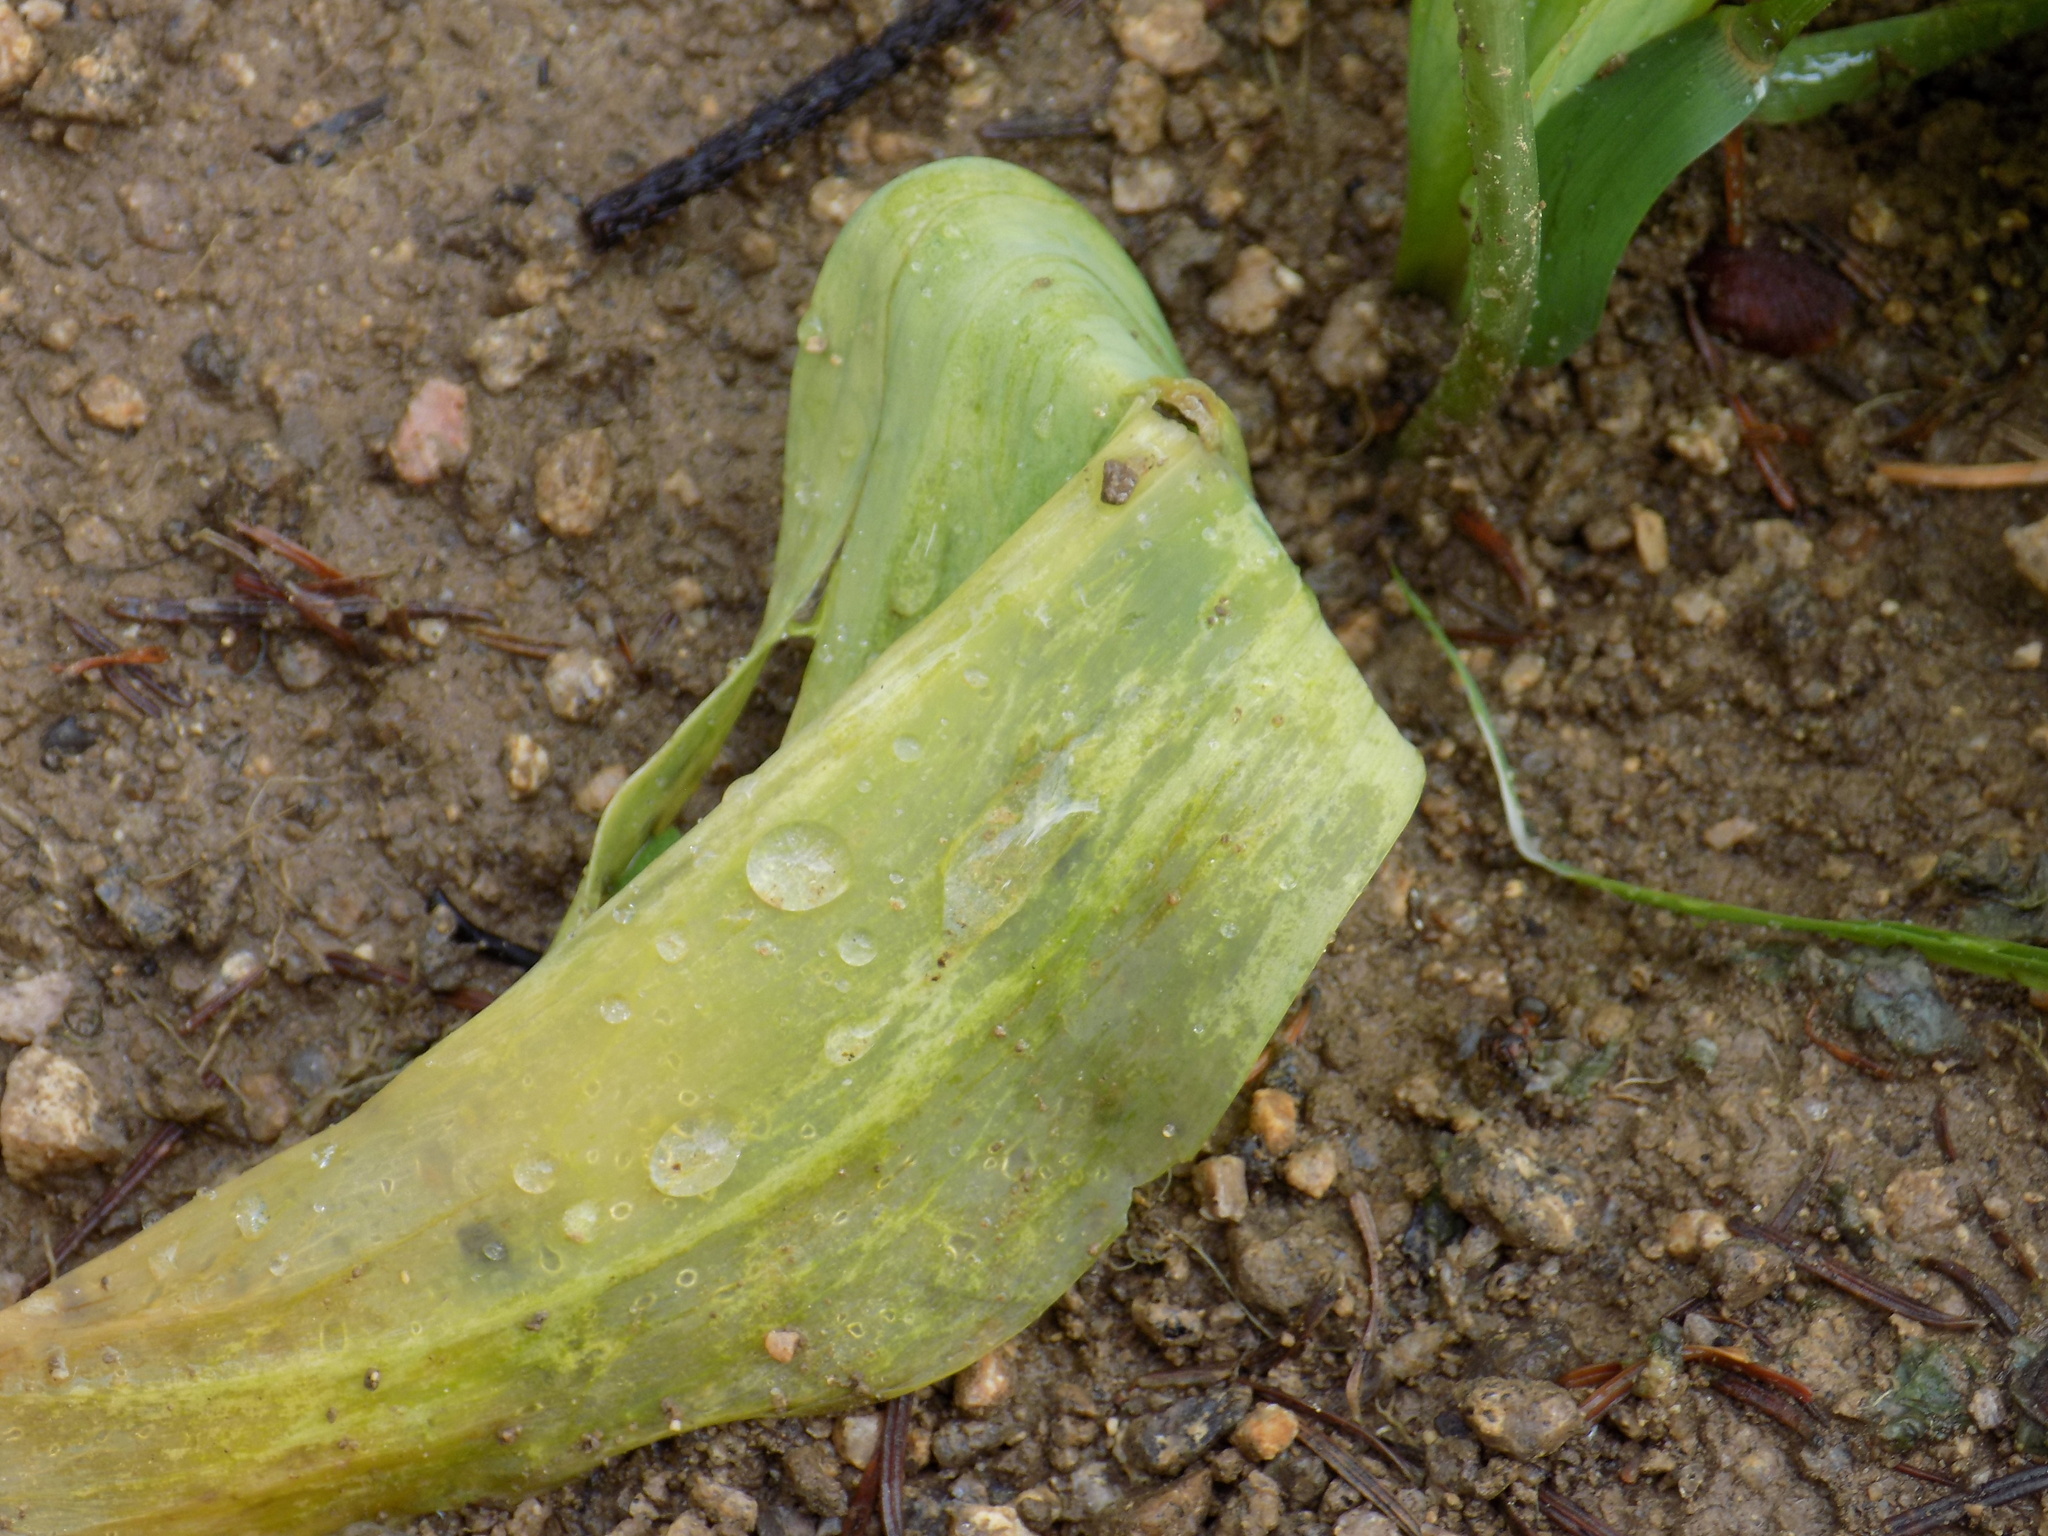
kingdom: Plantae
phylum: Tracheophyta
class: Liliopsida
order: Liliales
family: Liliaceae
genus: Erythronium
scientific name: Erythronium sibiricum
